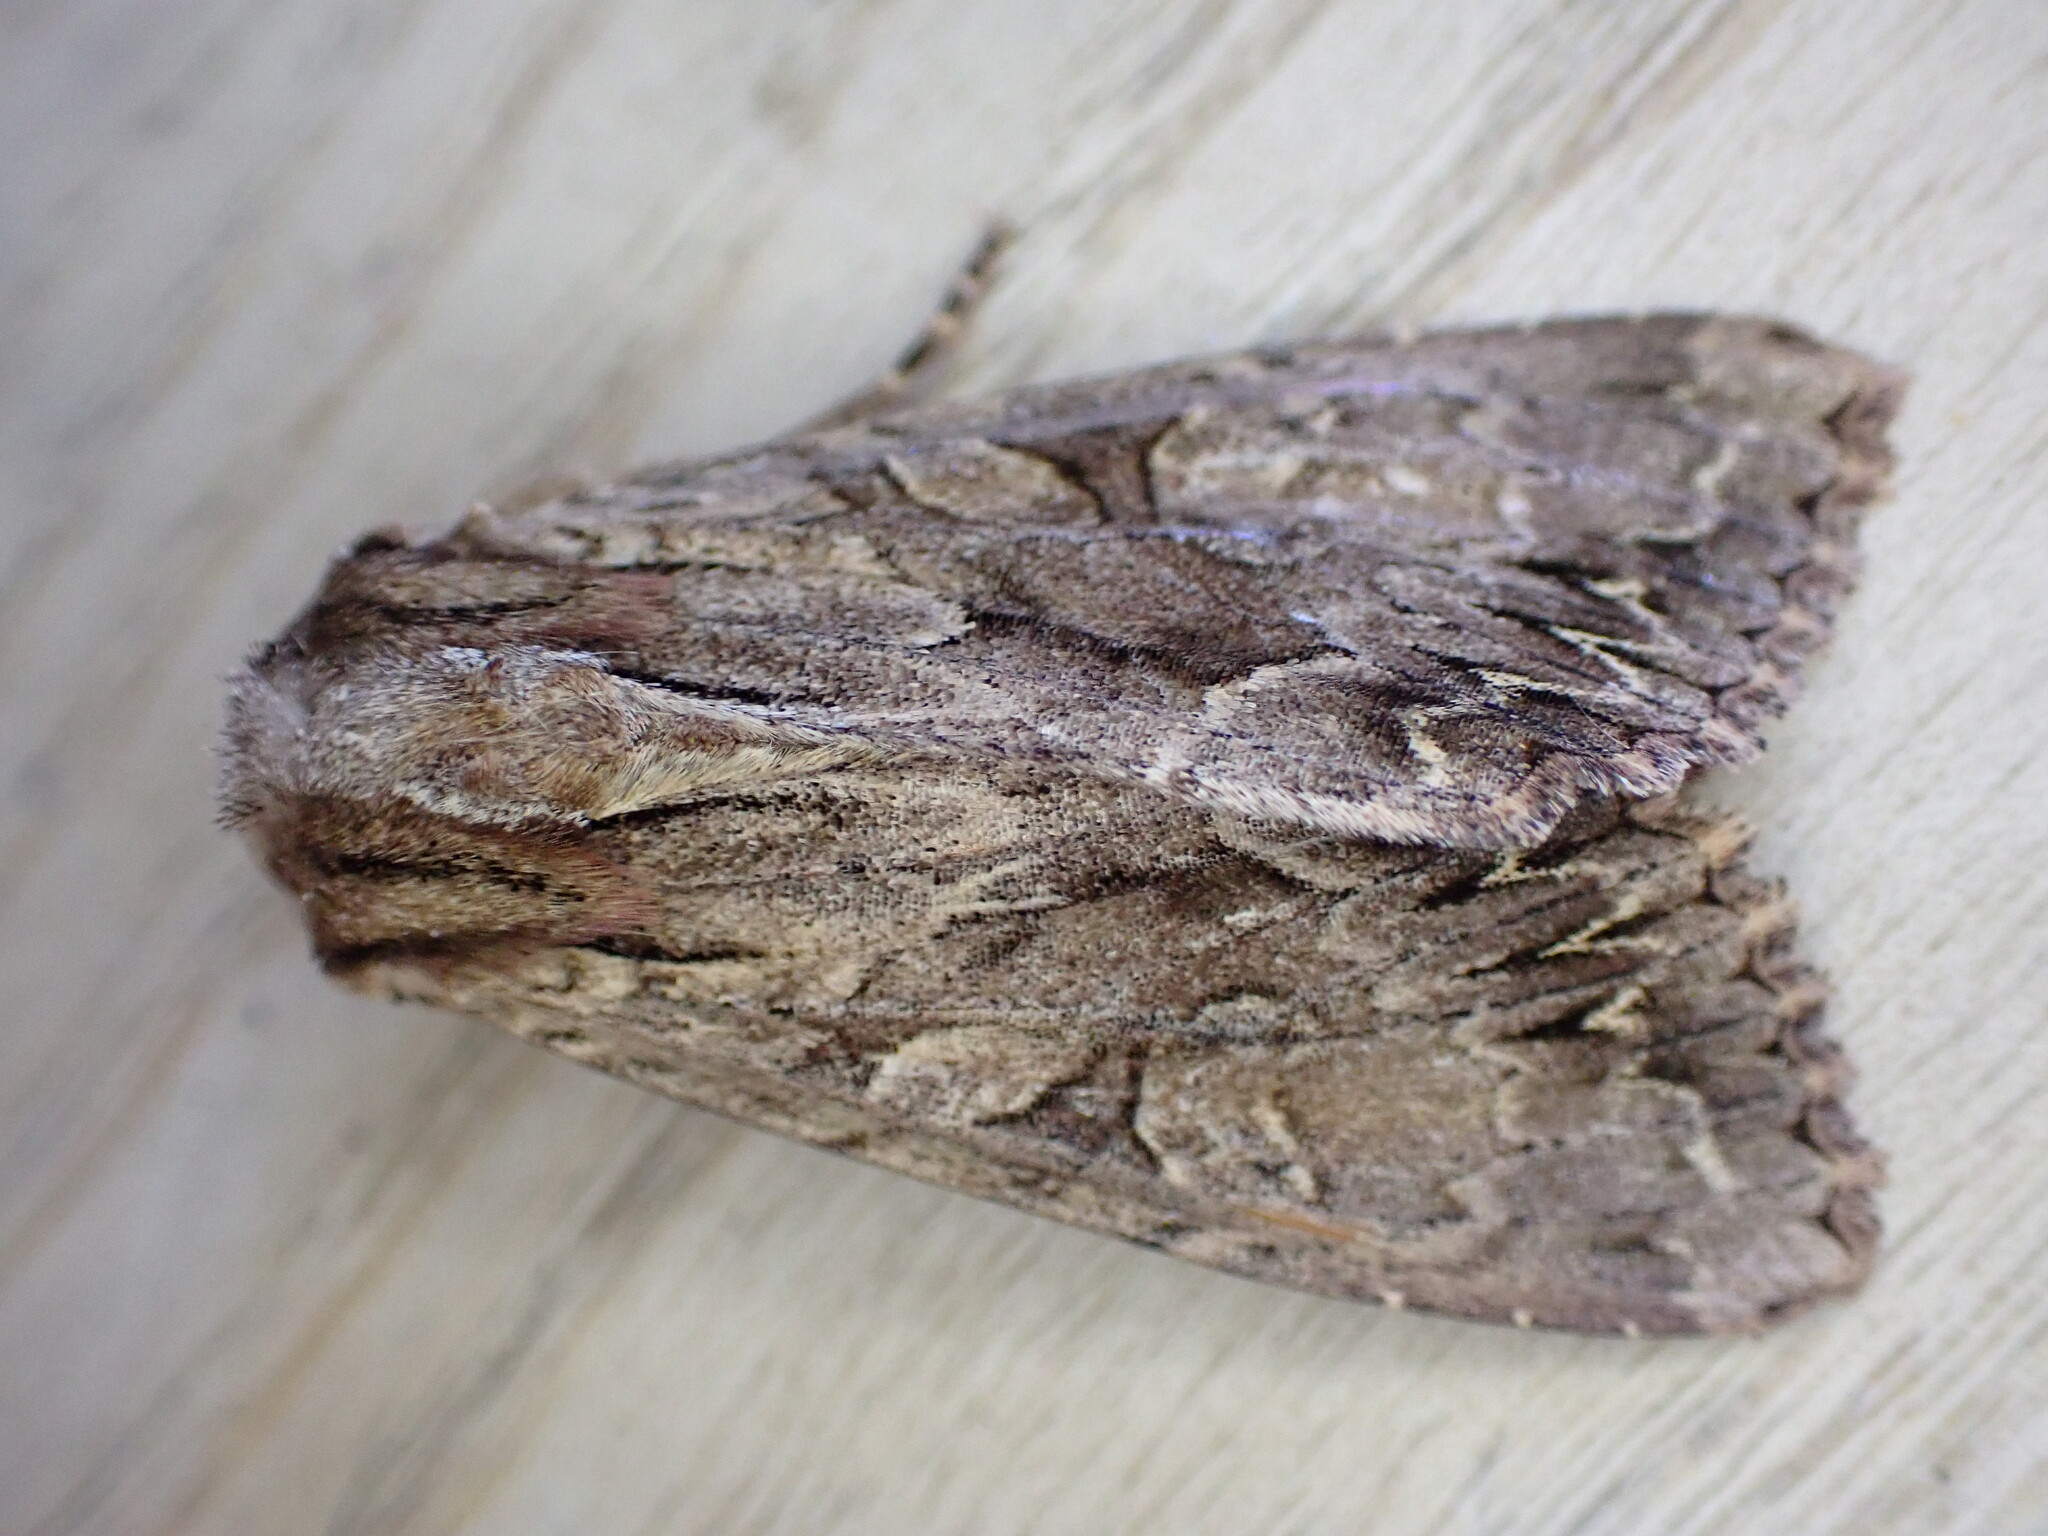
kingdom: Animalia
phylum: Arthropoda
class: Insecta
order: Lepidoptera
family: Noctuidae
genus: Apamea
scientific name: Apamea monoglypha
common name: Dark arches
